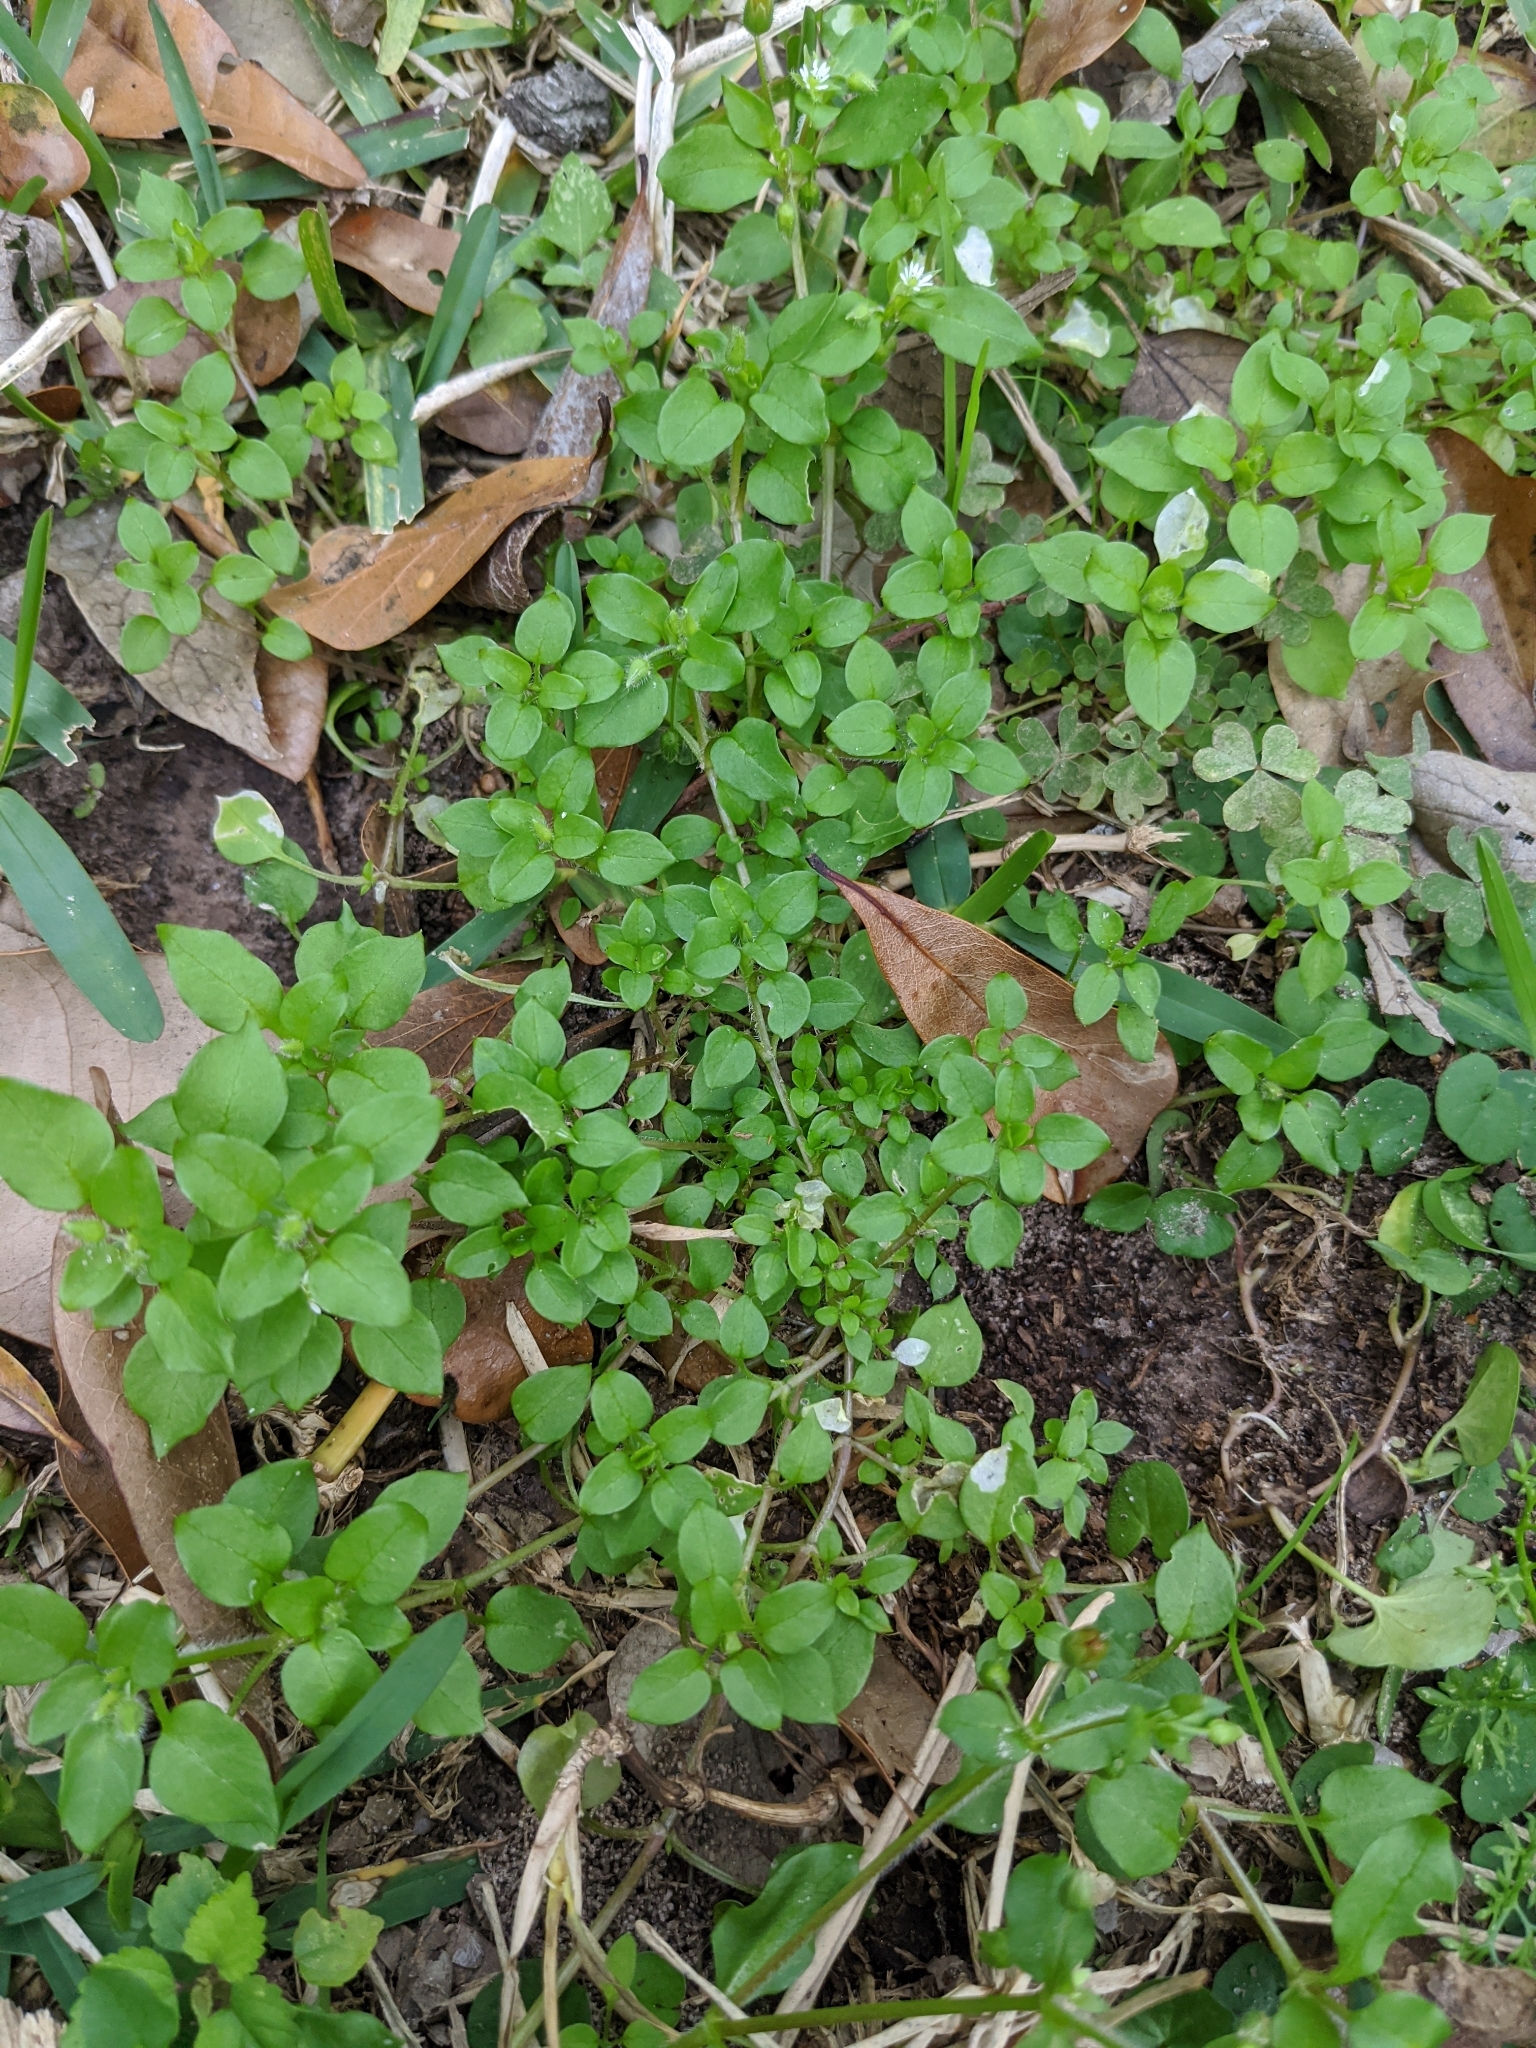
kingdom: Plantae
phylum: Tracheophyta
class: Magnoliopsida
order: Caryophyllales
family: Caryophyllaceae
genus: Stellaria
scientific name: Stellaria media
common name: Common chickweed
